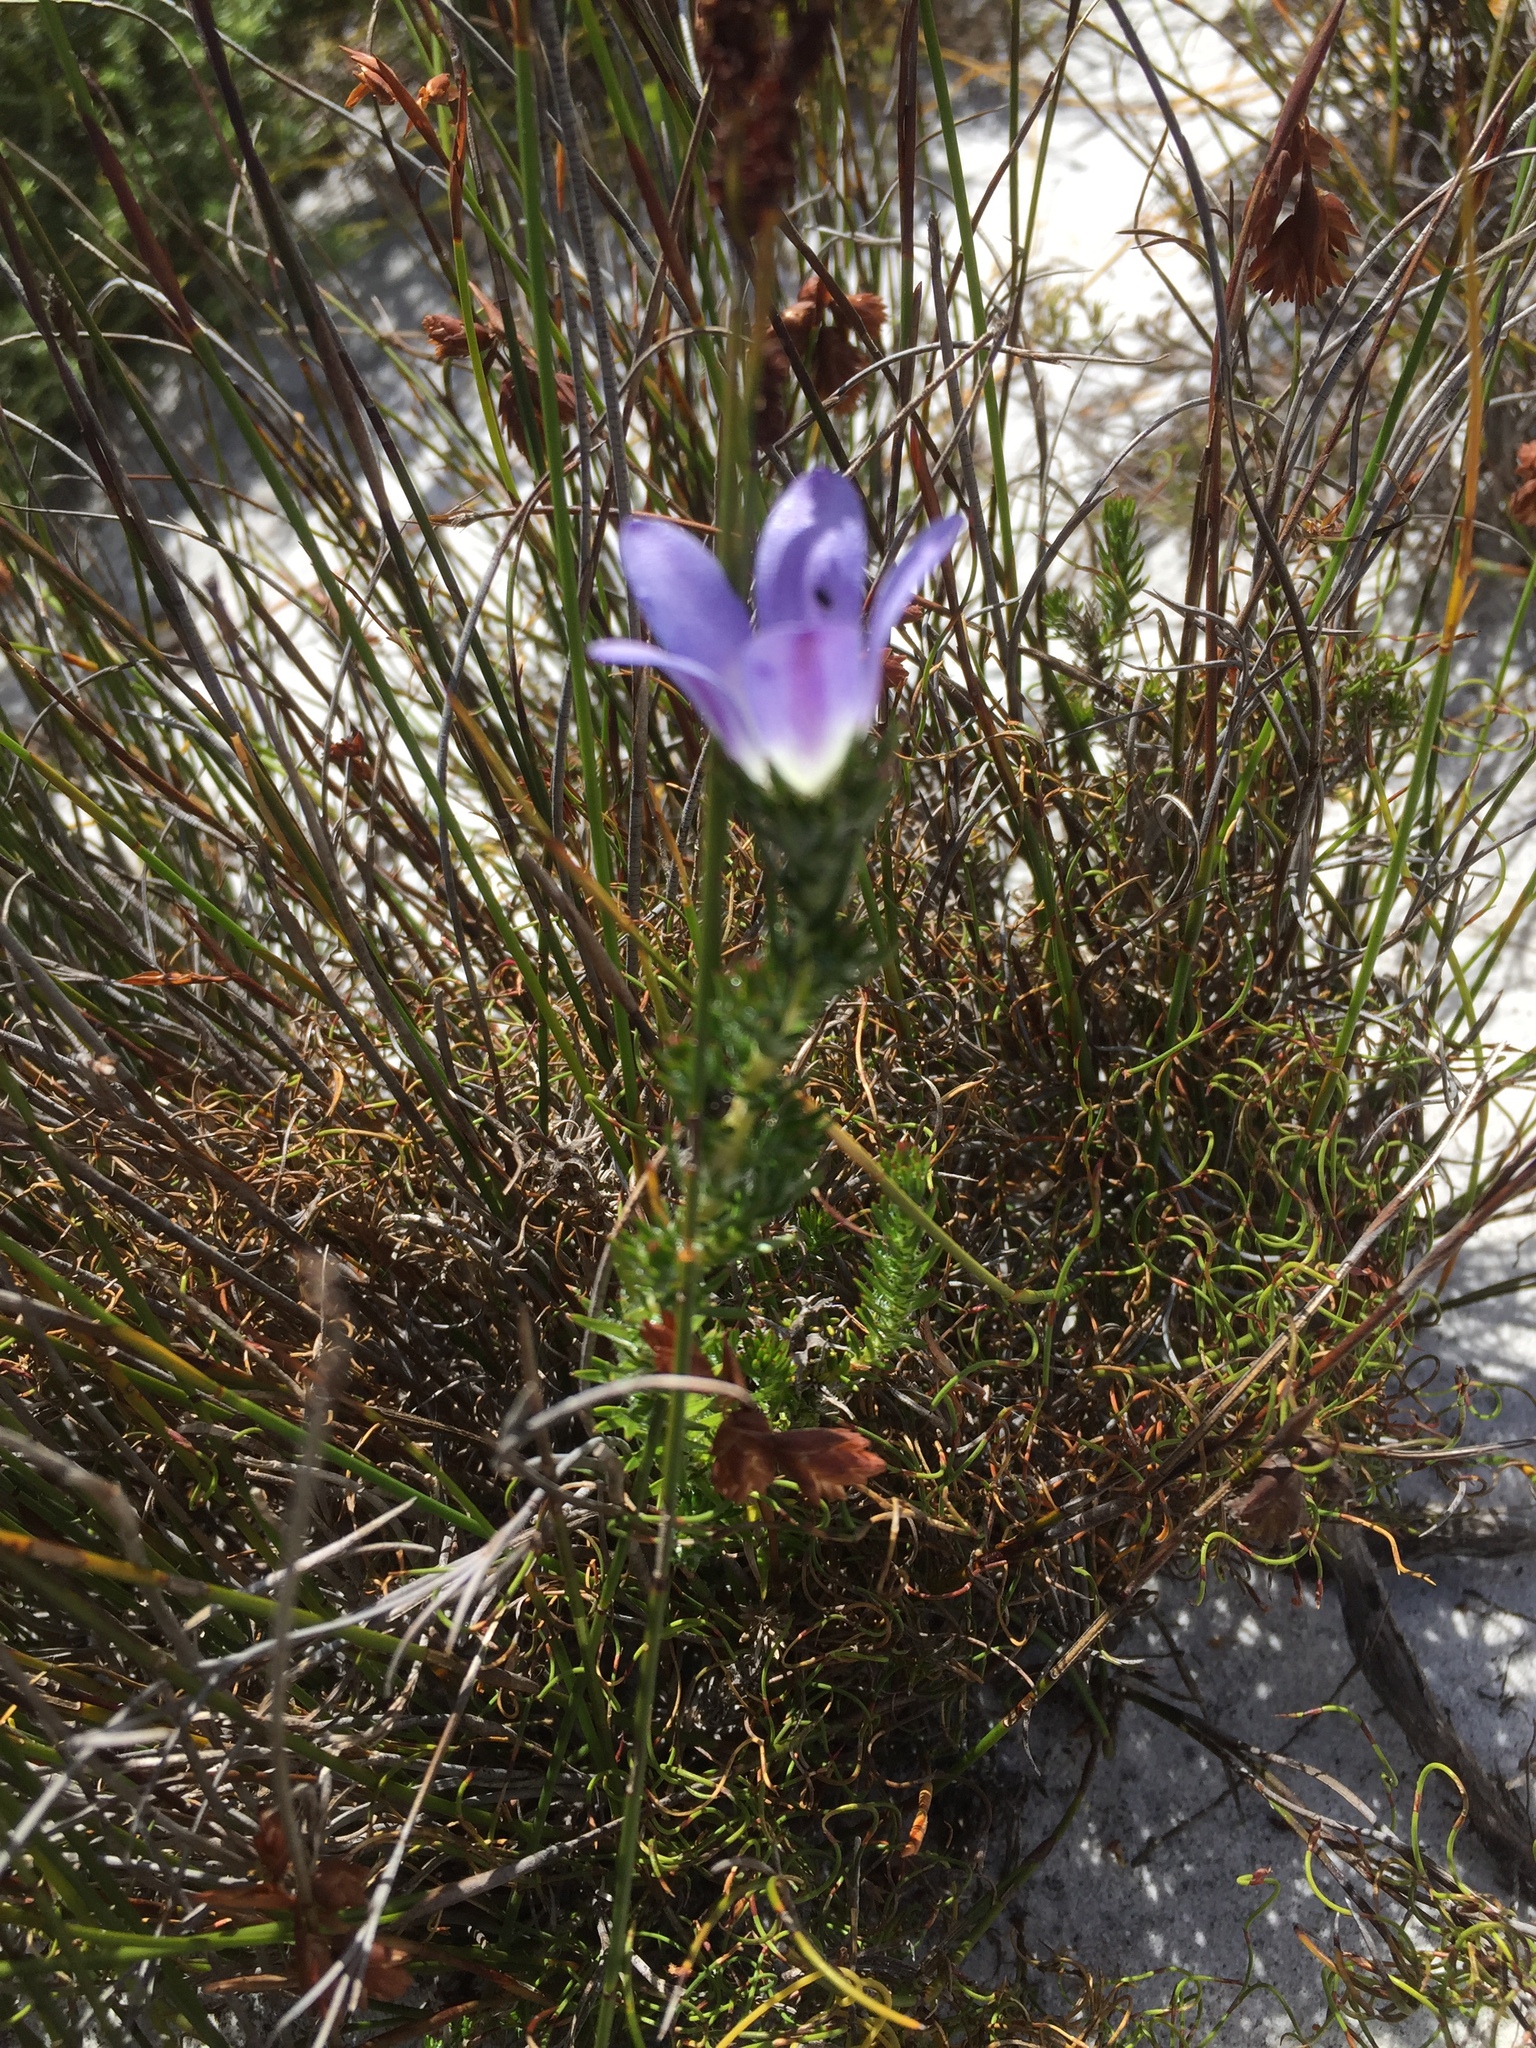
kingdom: Plantae
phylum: Tracheophyta
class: Magnoliopsida
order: Asterales
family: Campanulaceae
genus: Roella
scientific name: Roella prostrata
